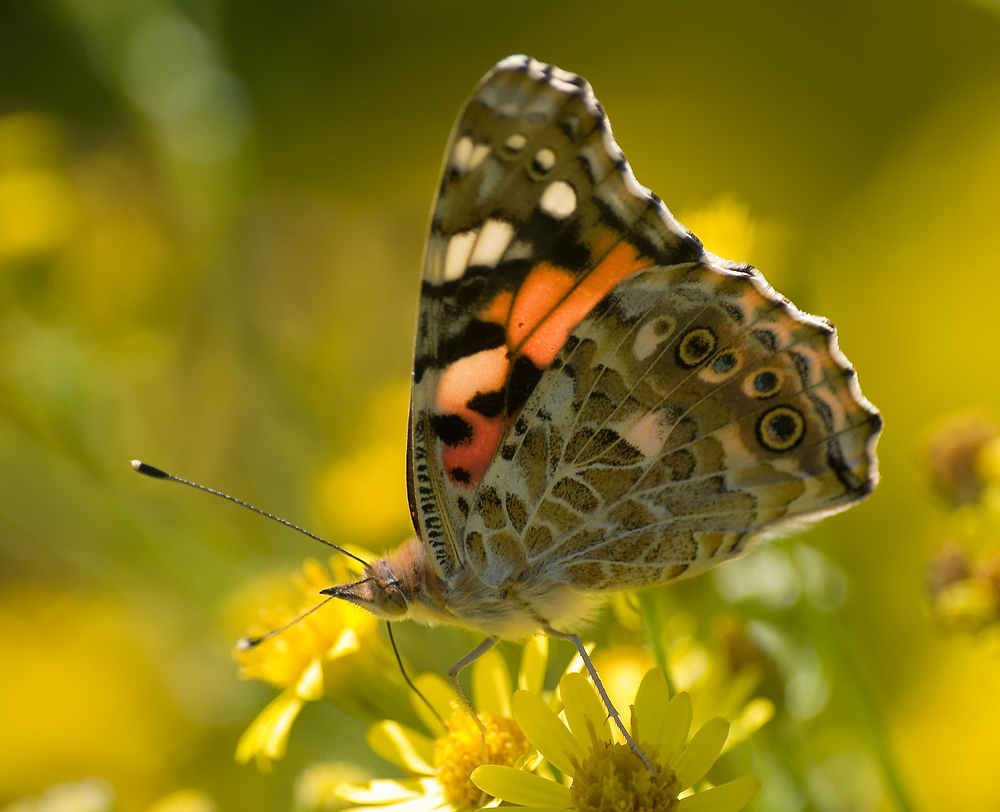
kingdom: Animalia
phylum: Arthropoda
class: Insecta
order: Lepidoptera
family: Nymphalidae
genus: Vanessa
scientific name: Vanessa cardui
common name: Painted lady
